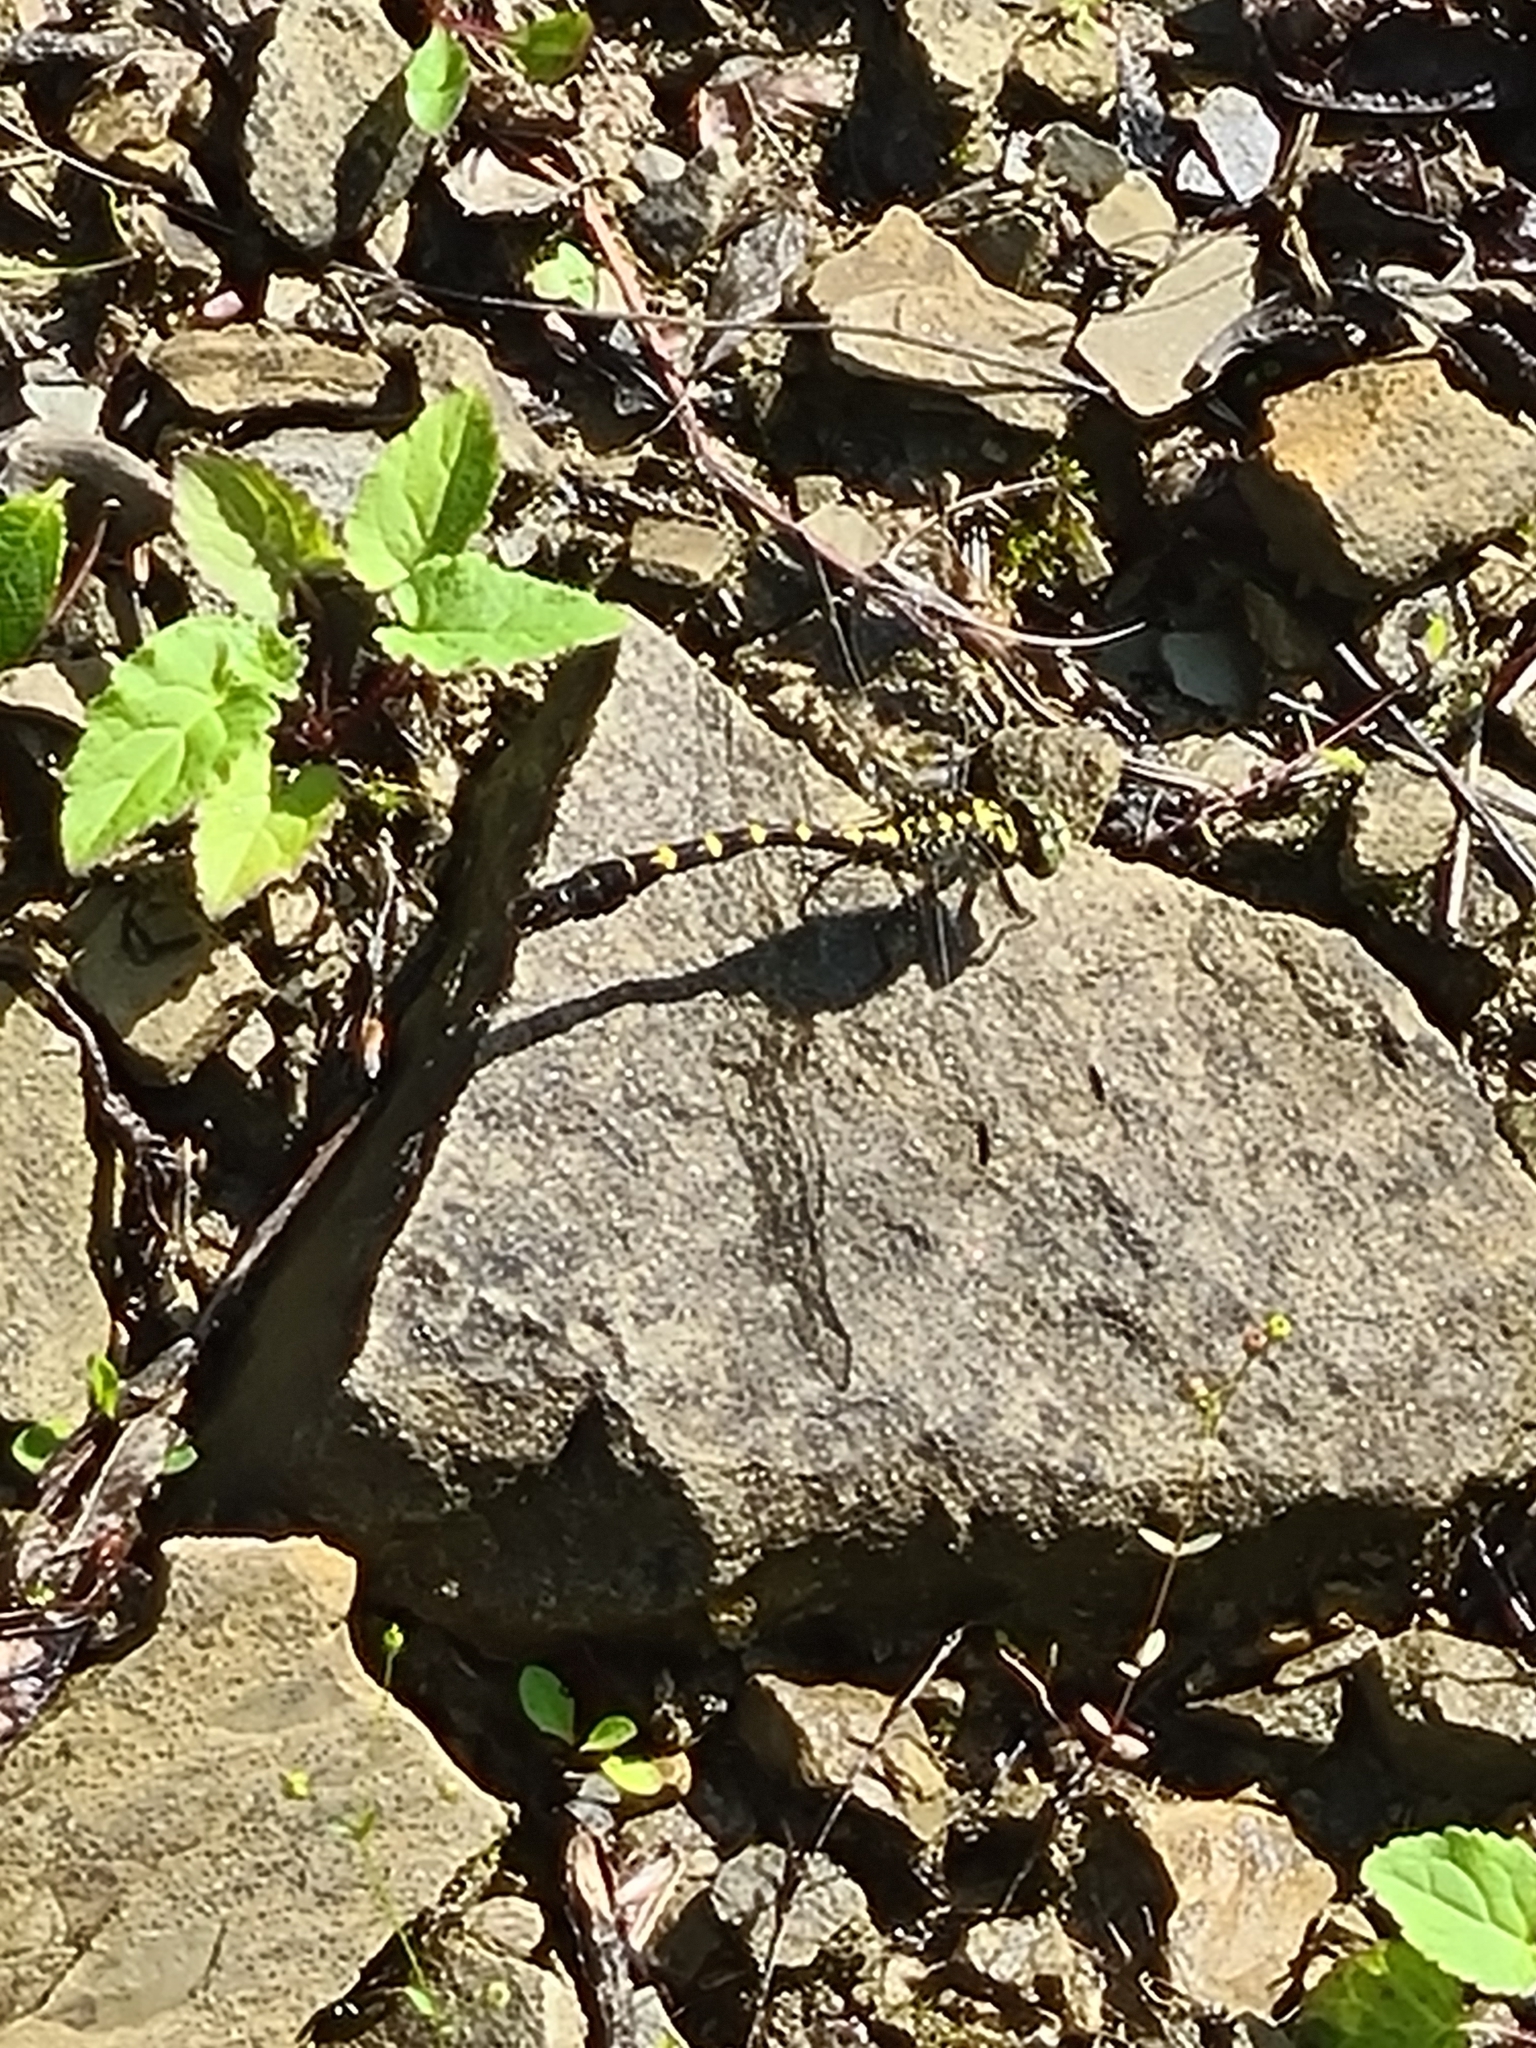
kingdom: Animalia
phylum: Arthropoda
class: Insecta
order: Odonata
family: Gomphidae
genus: Onychogomphus
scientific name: Onychogomphus forcipatus
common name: Small pincertail
